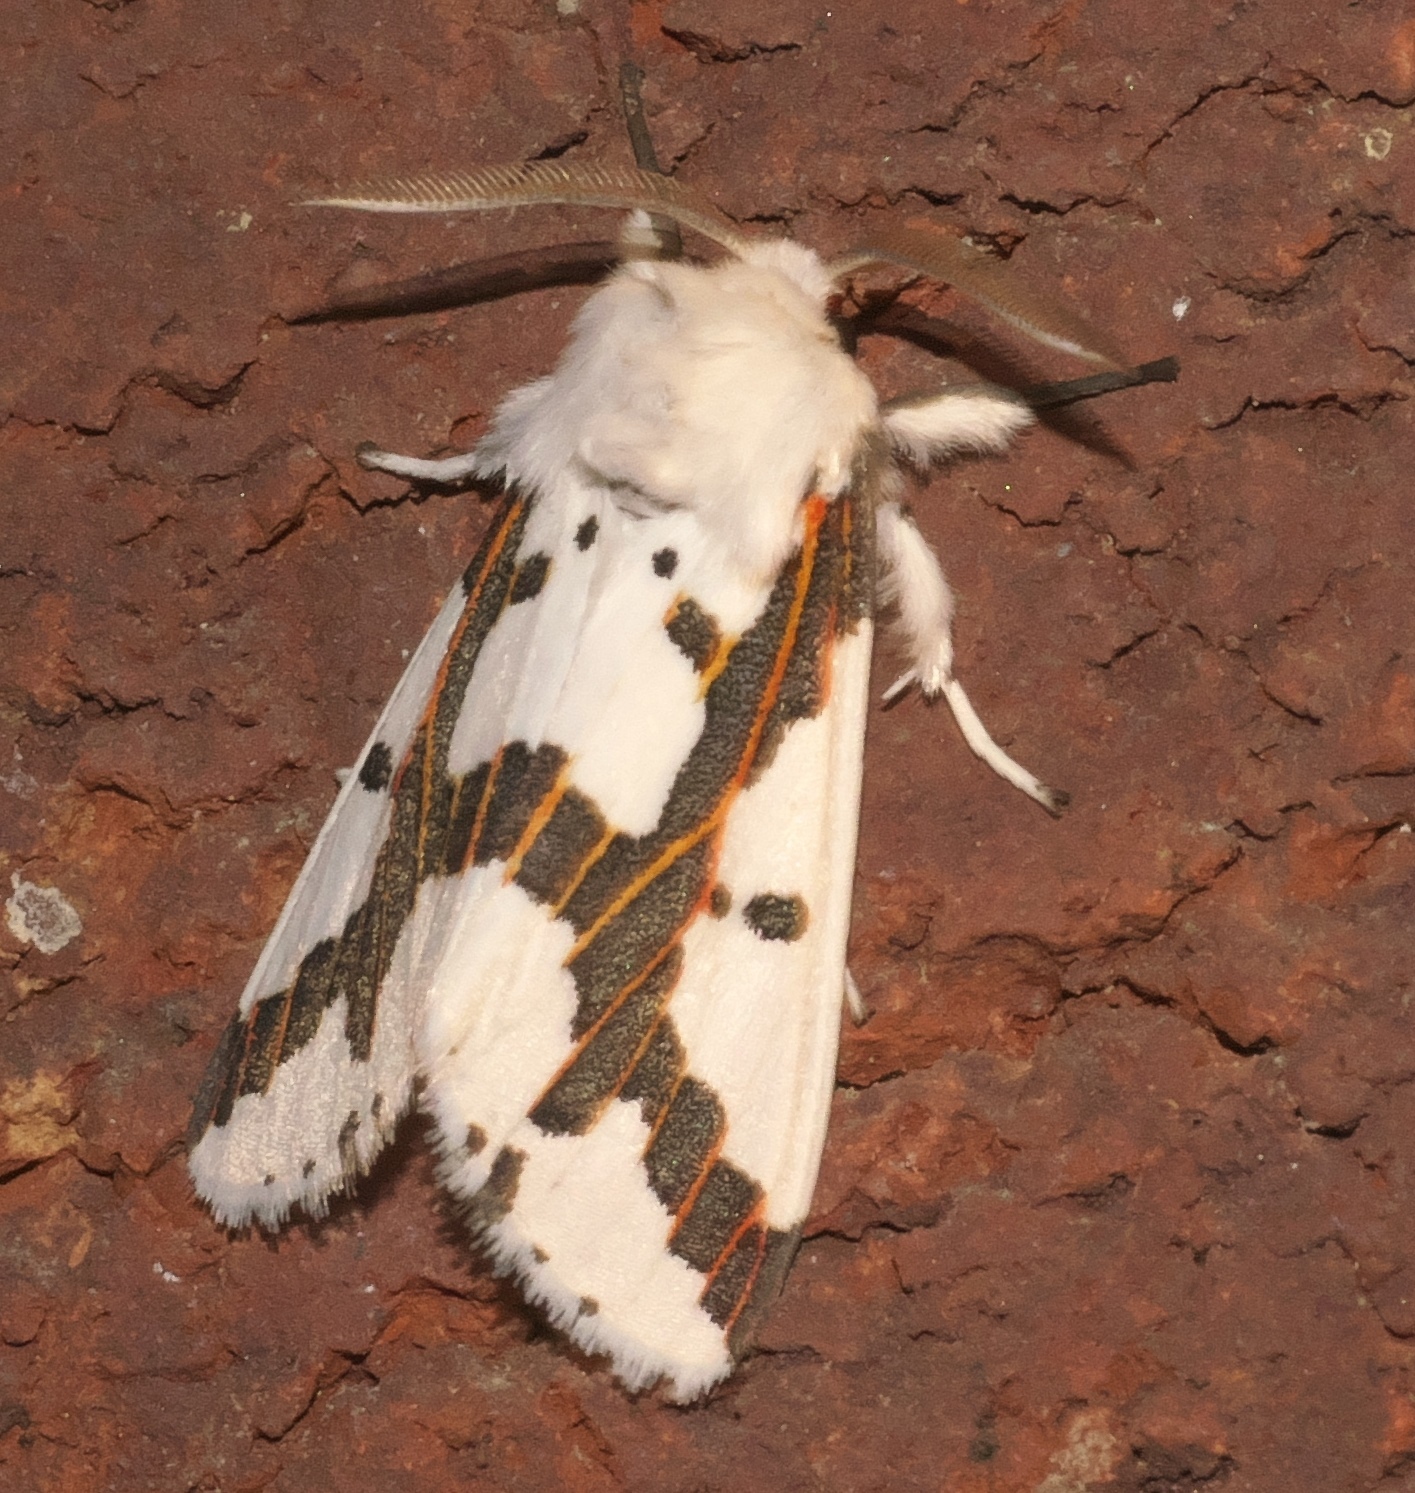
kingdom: Animalia
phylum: Arthropoda
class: Insecta
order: Lepidoptera
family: Erebidae
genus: Euerythra
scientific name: Euerythra phasma
